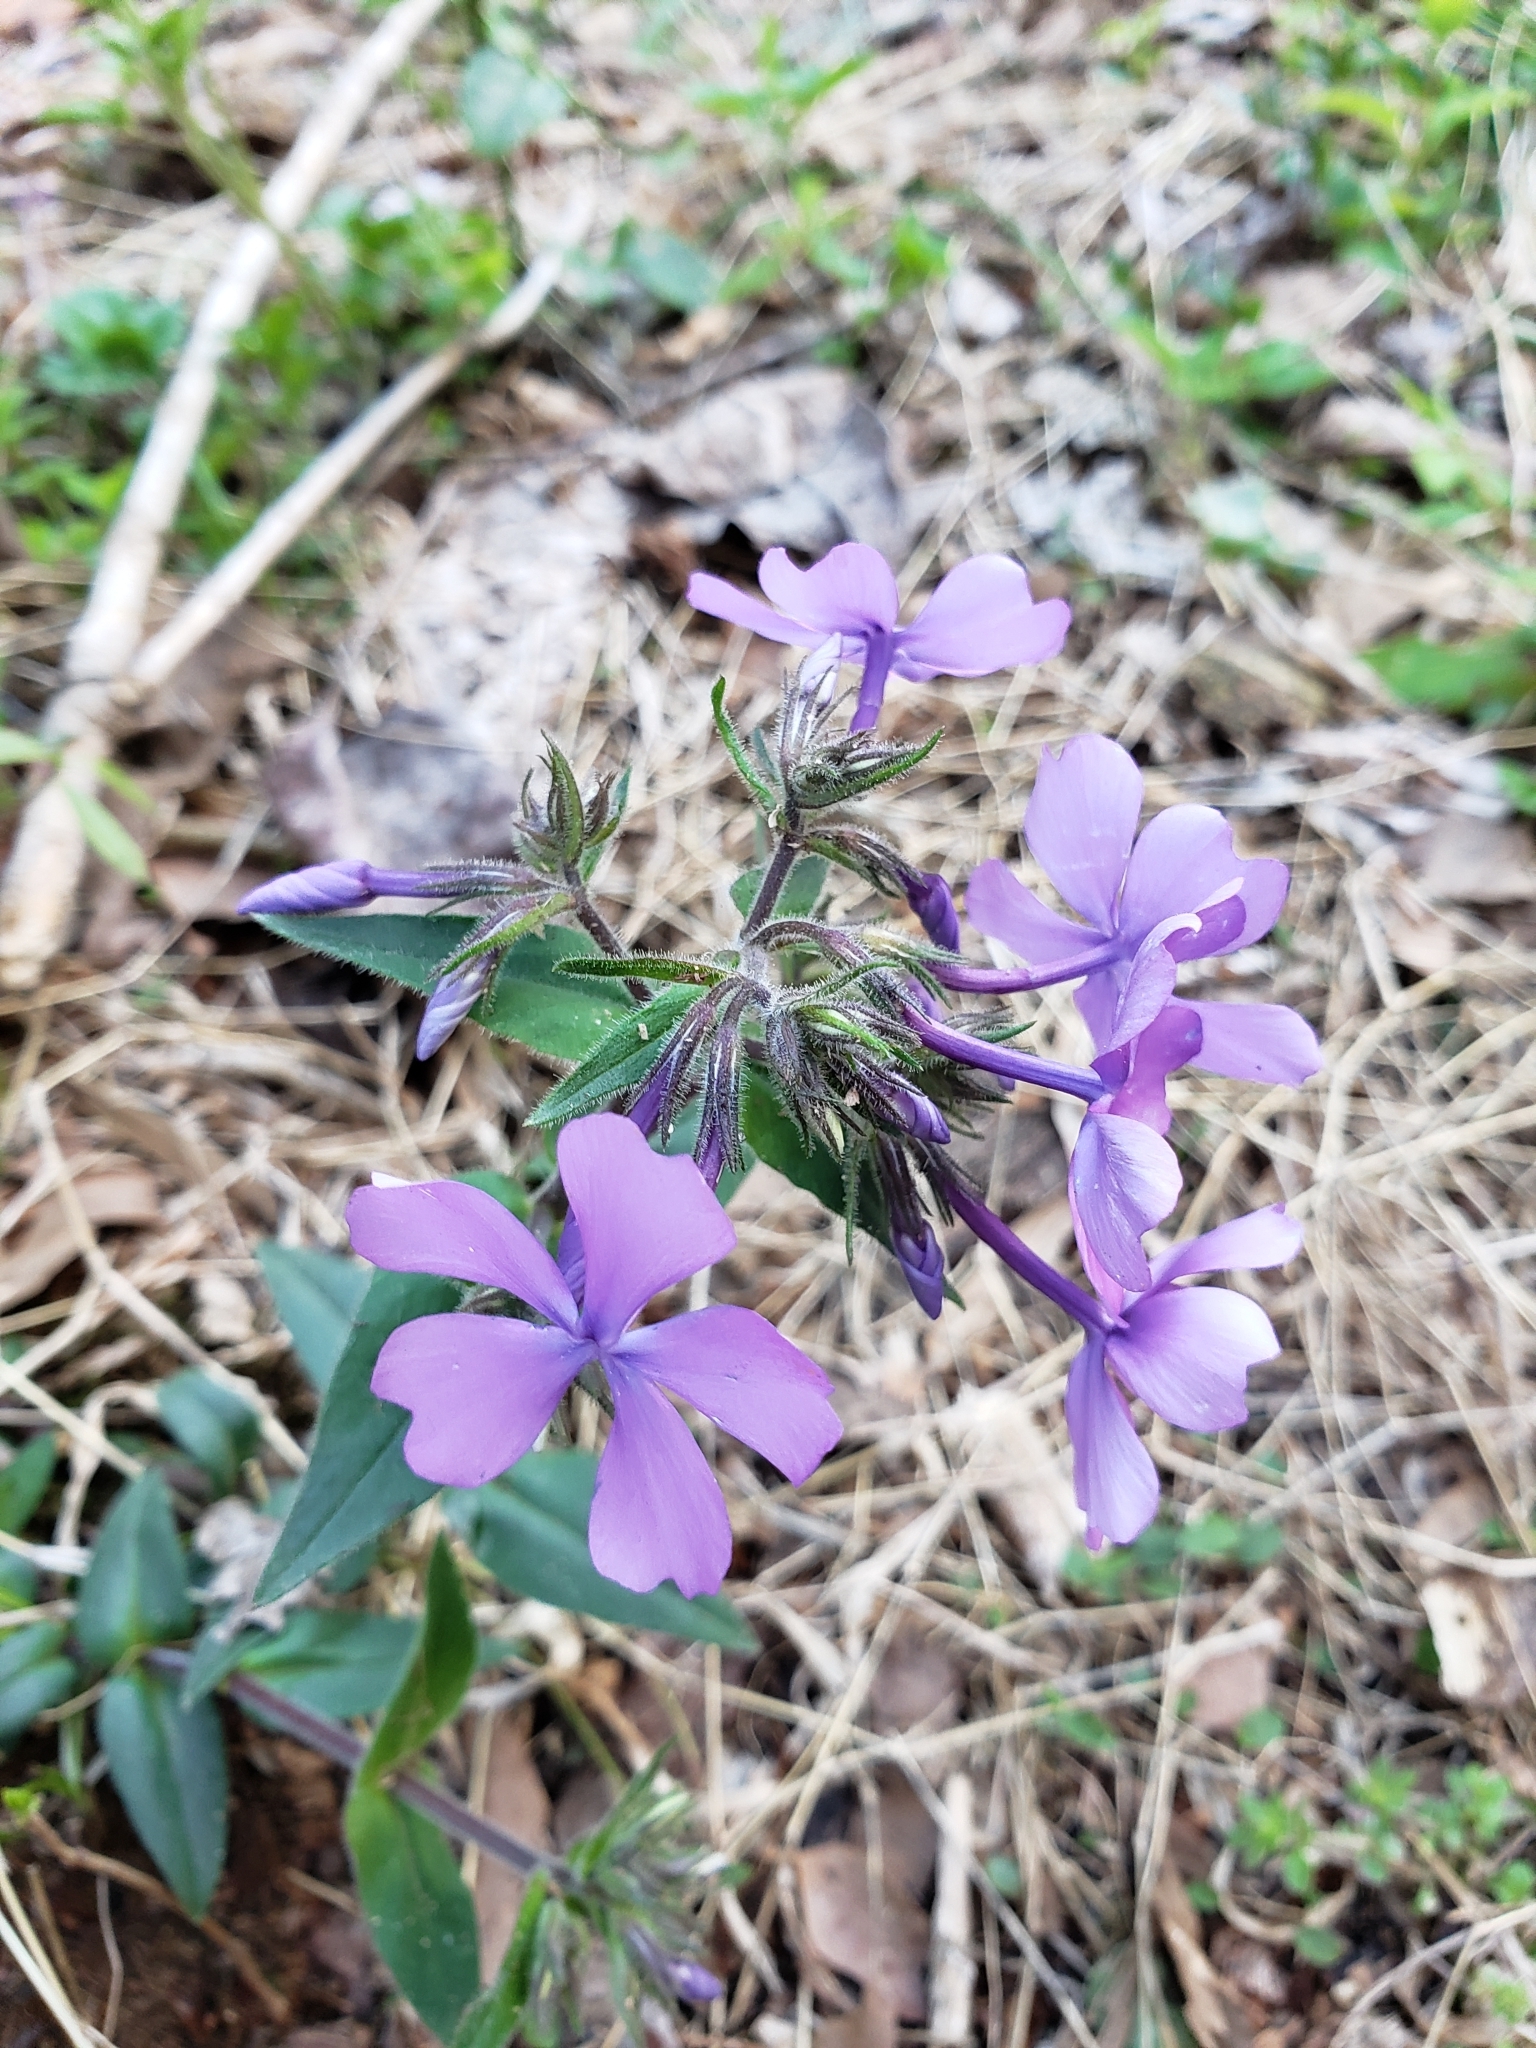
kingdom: Plantae
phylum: Tracheophyta
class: Magnoliopsida
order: Ericales
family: Polemoniaceae
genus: Phlox
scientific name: Phlox divaricata
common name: Blue phlox
